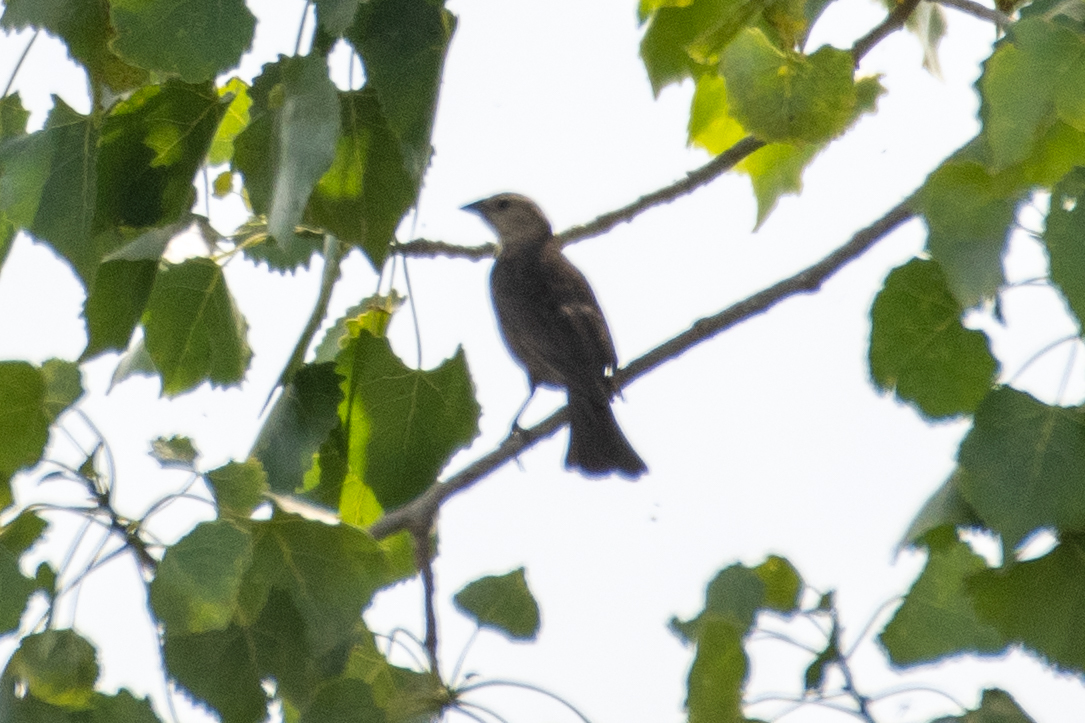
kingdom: Animalia
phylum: Chordata
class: Aves
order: Passeriformes
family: Icteridae
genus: Molothrus
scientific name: Molothrus ater
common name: Brown-headed cowbird
